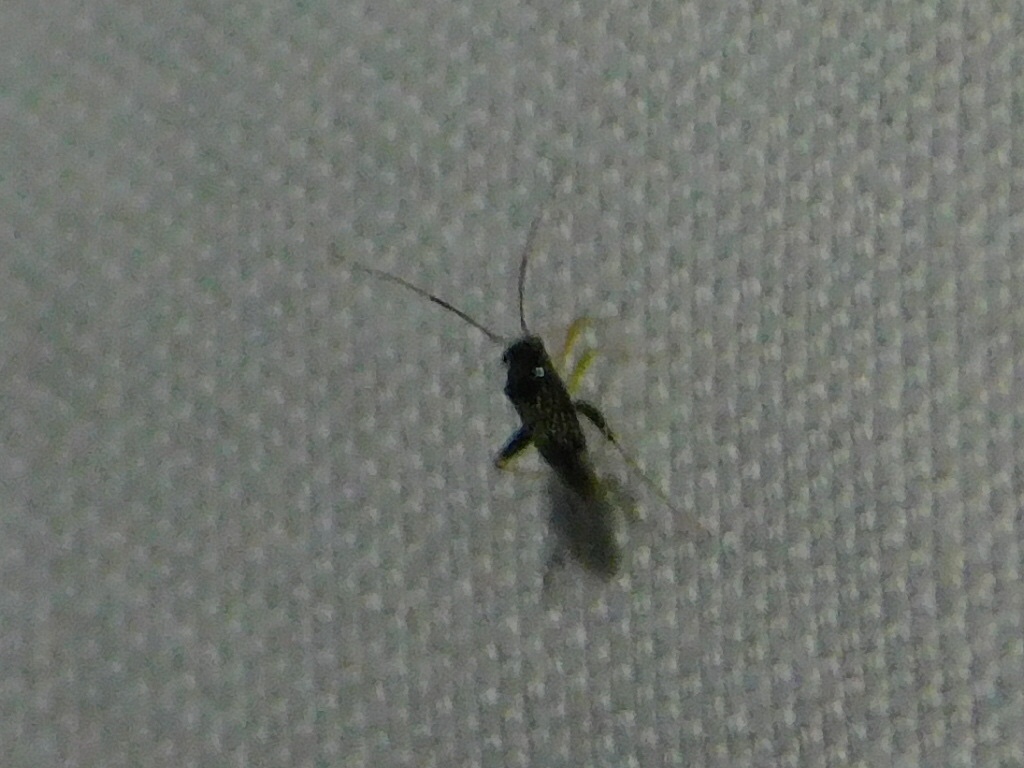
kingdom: Animalia
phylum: Arthropoda
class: Insecta
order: Hemiptera
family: Miridae
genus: Microtechnites
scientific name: Microtechnites bractatus
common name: Garden fleahopper
